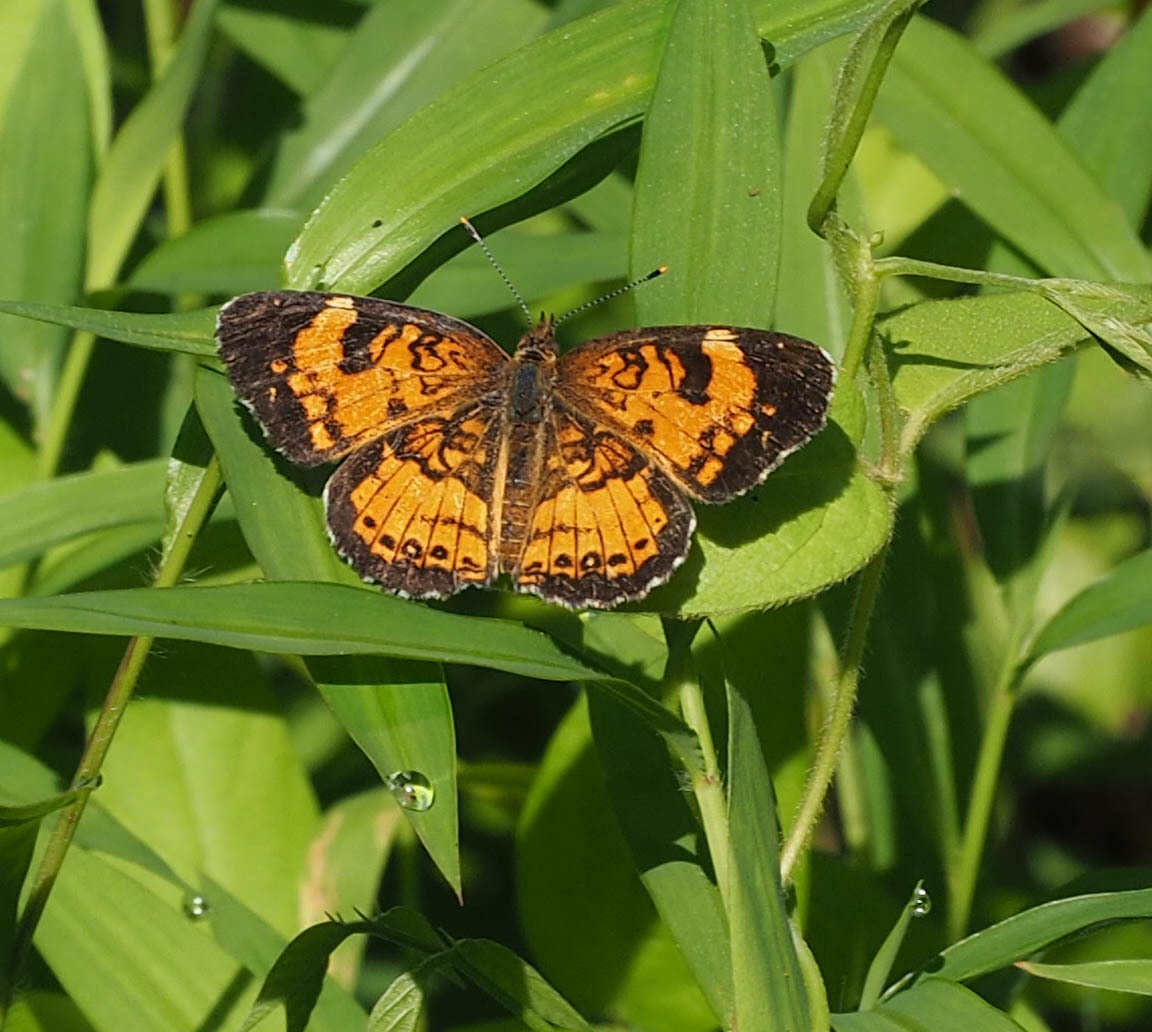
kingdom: Animalia
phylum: Arthropoda
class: Insecta
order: Lepidoptera
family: Nymphalidae
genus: Chlosyne
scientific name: Chlosyne nycteis
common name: Silvery checkerspot
